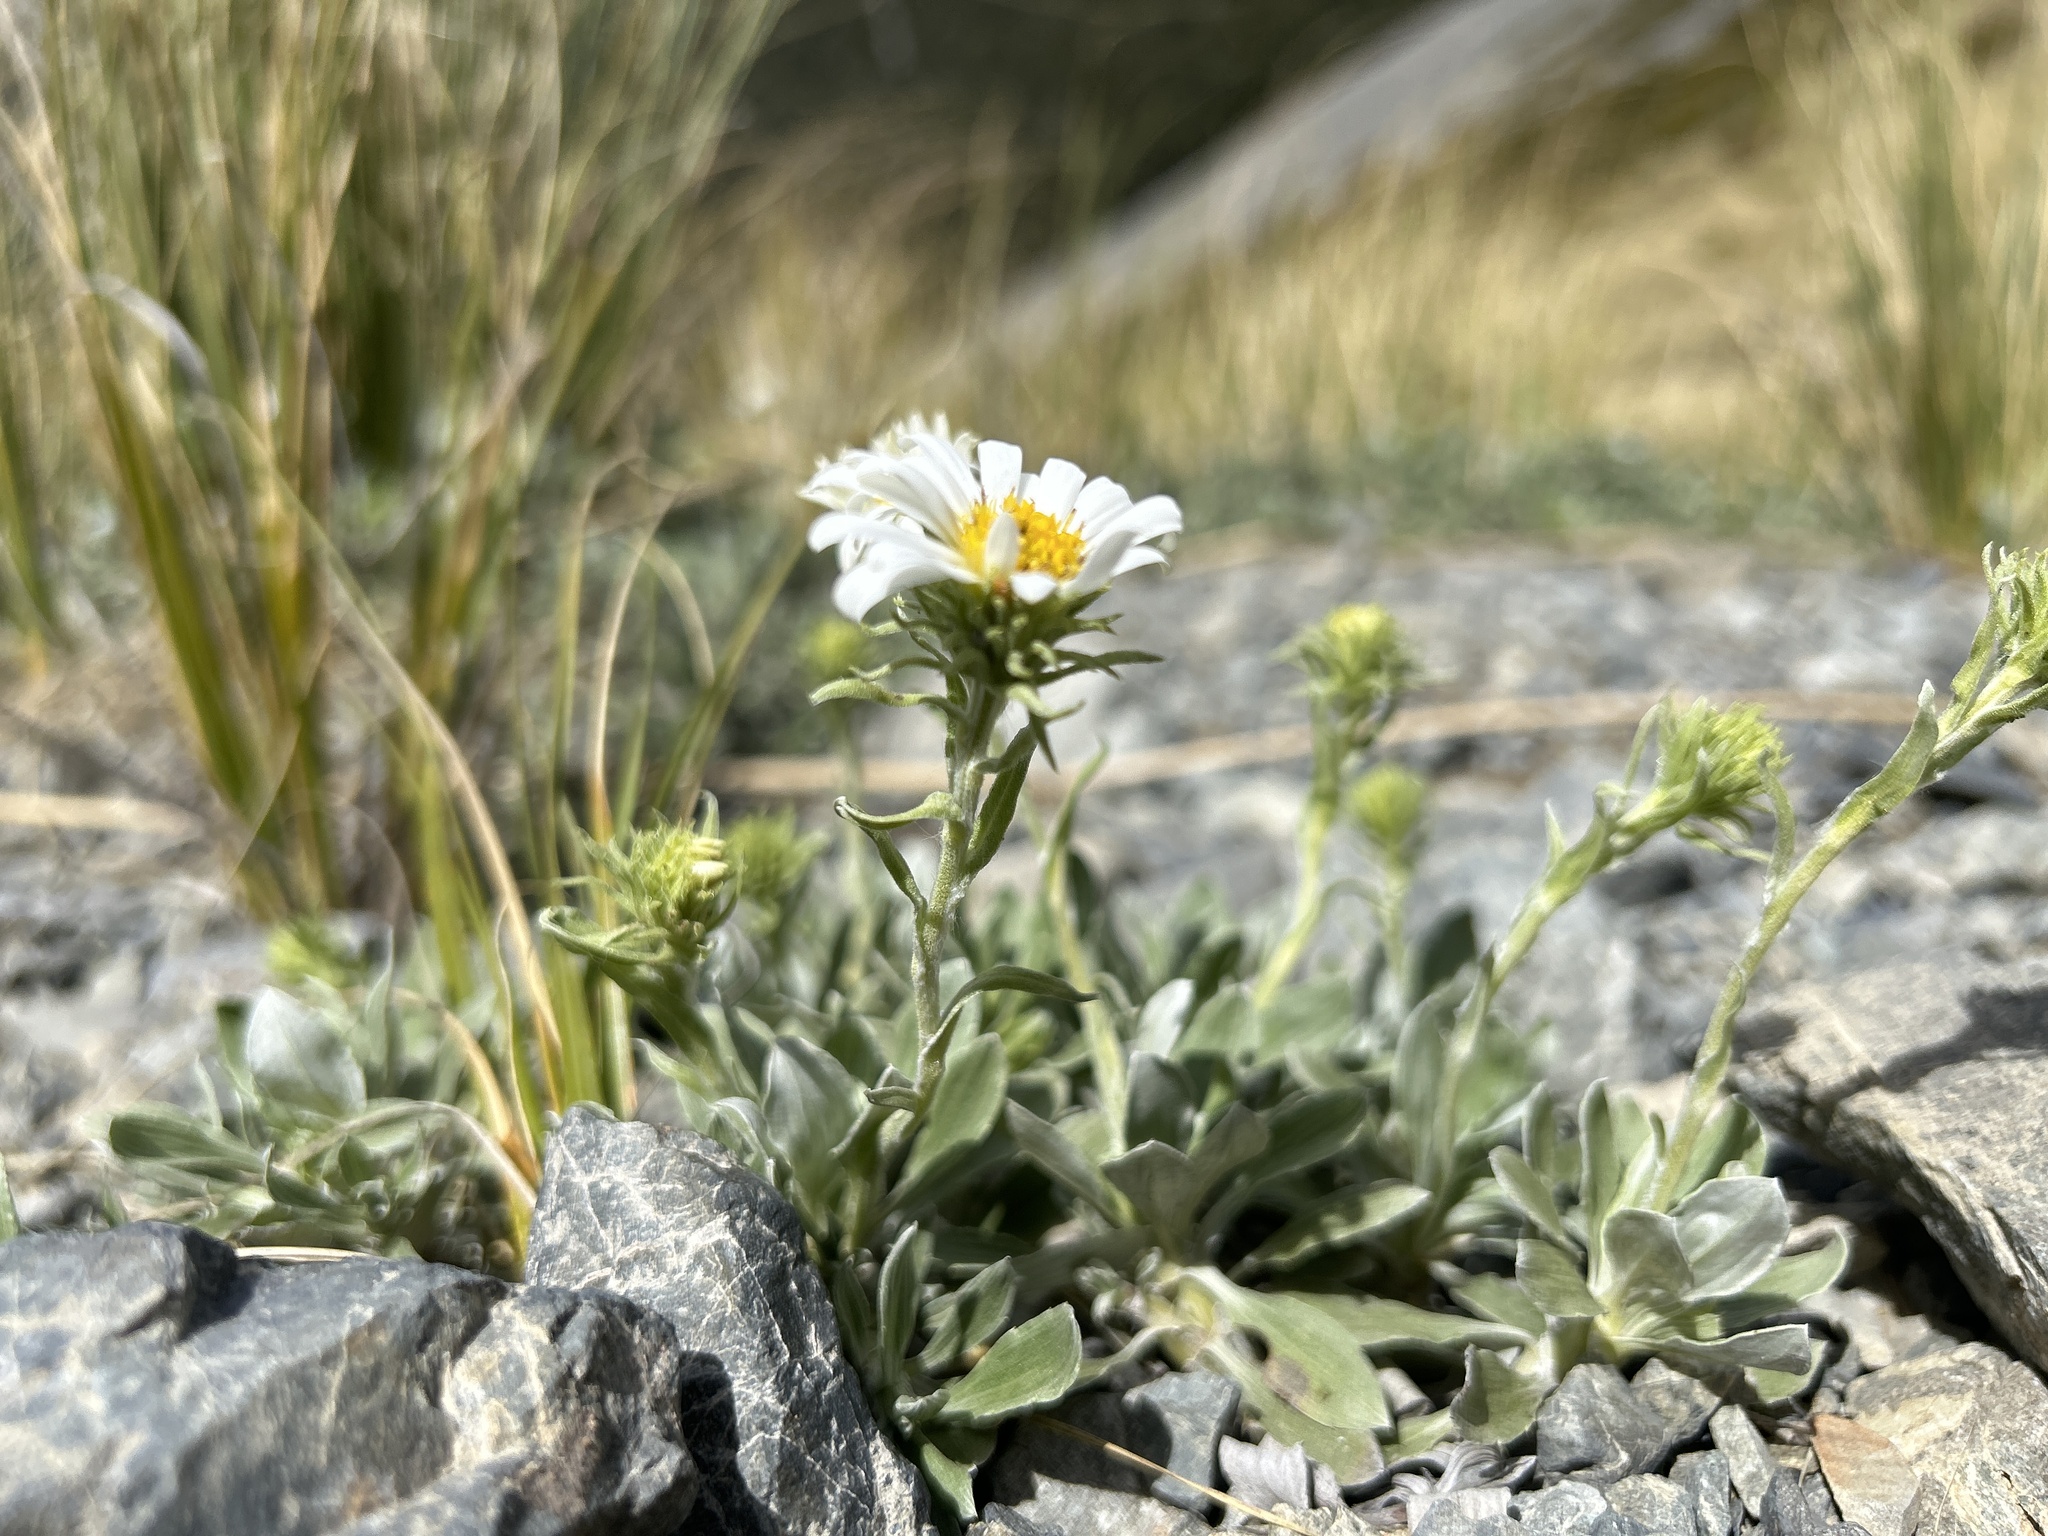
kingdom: Plantae
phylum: Tracheophyta
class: Magnoliopsida
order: Asterales
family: Asteraceae
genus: Celmisia
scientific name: Celmisia discolor
